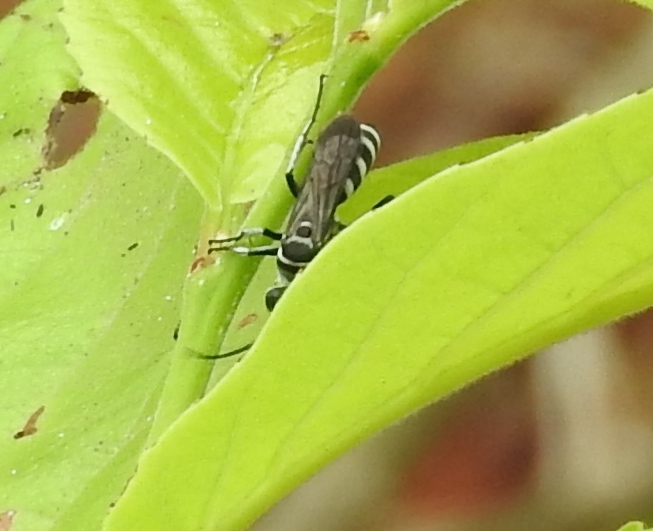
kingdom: Animalia
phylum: Arthropoda
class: Insecta
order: Hymenoptera
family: Pompilidae
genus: Aporinellus
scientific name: Aporinellus
